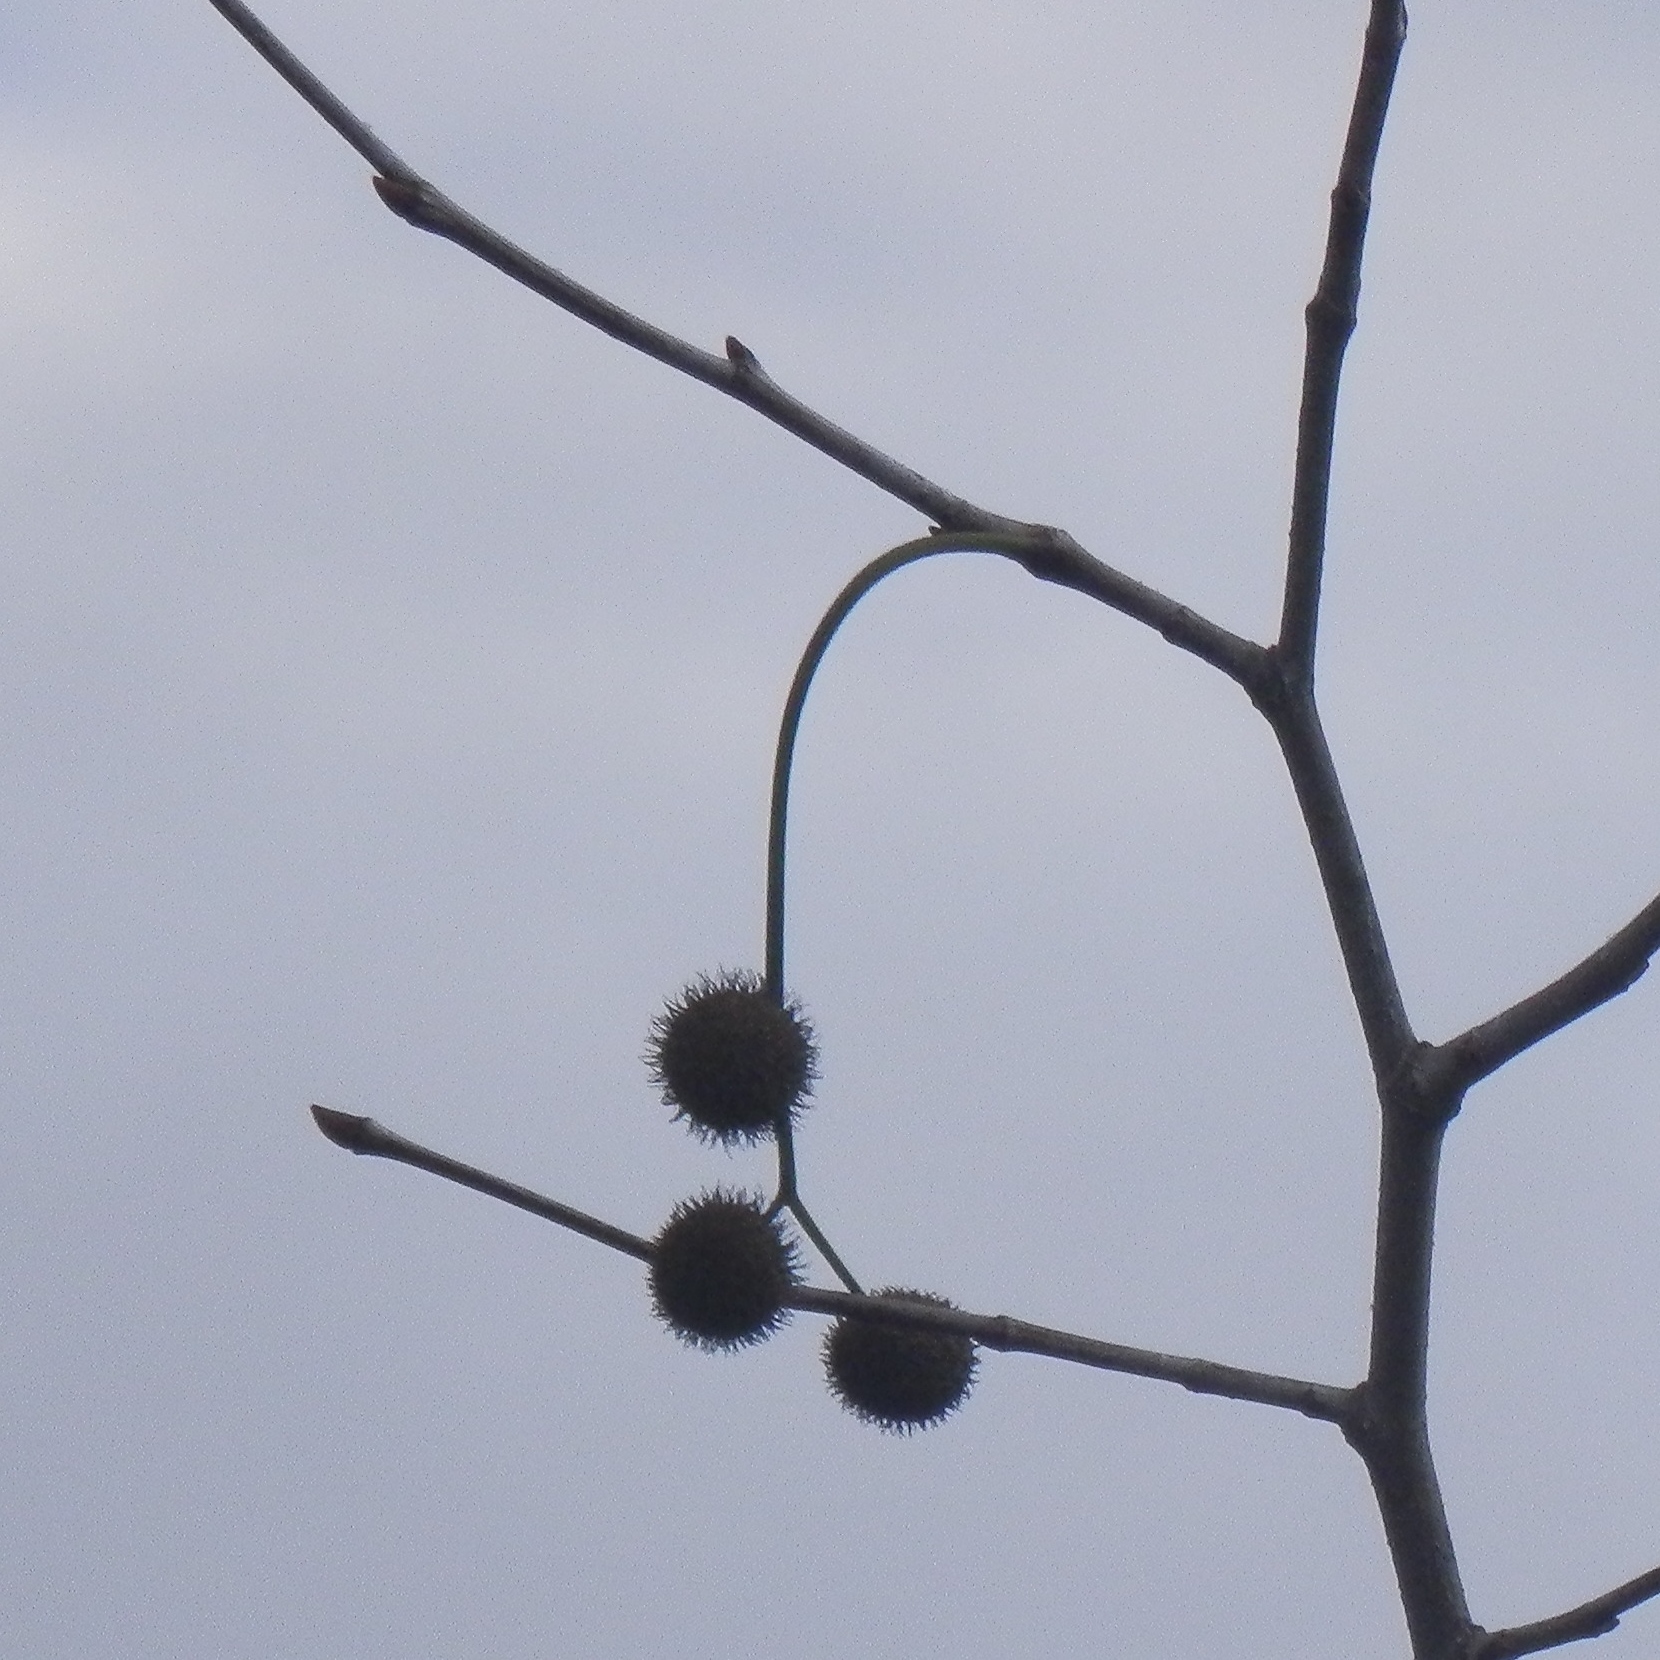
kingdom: Plantae
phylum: Tracheophyta
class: Magnoliopsida
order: Proteales
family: Platanaceae
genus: Platanus
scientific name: Platanus racemosa
